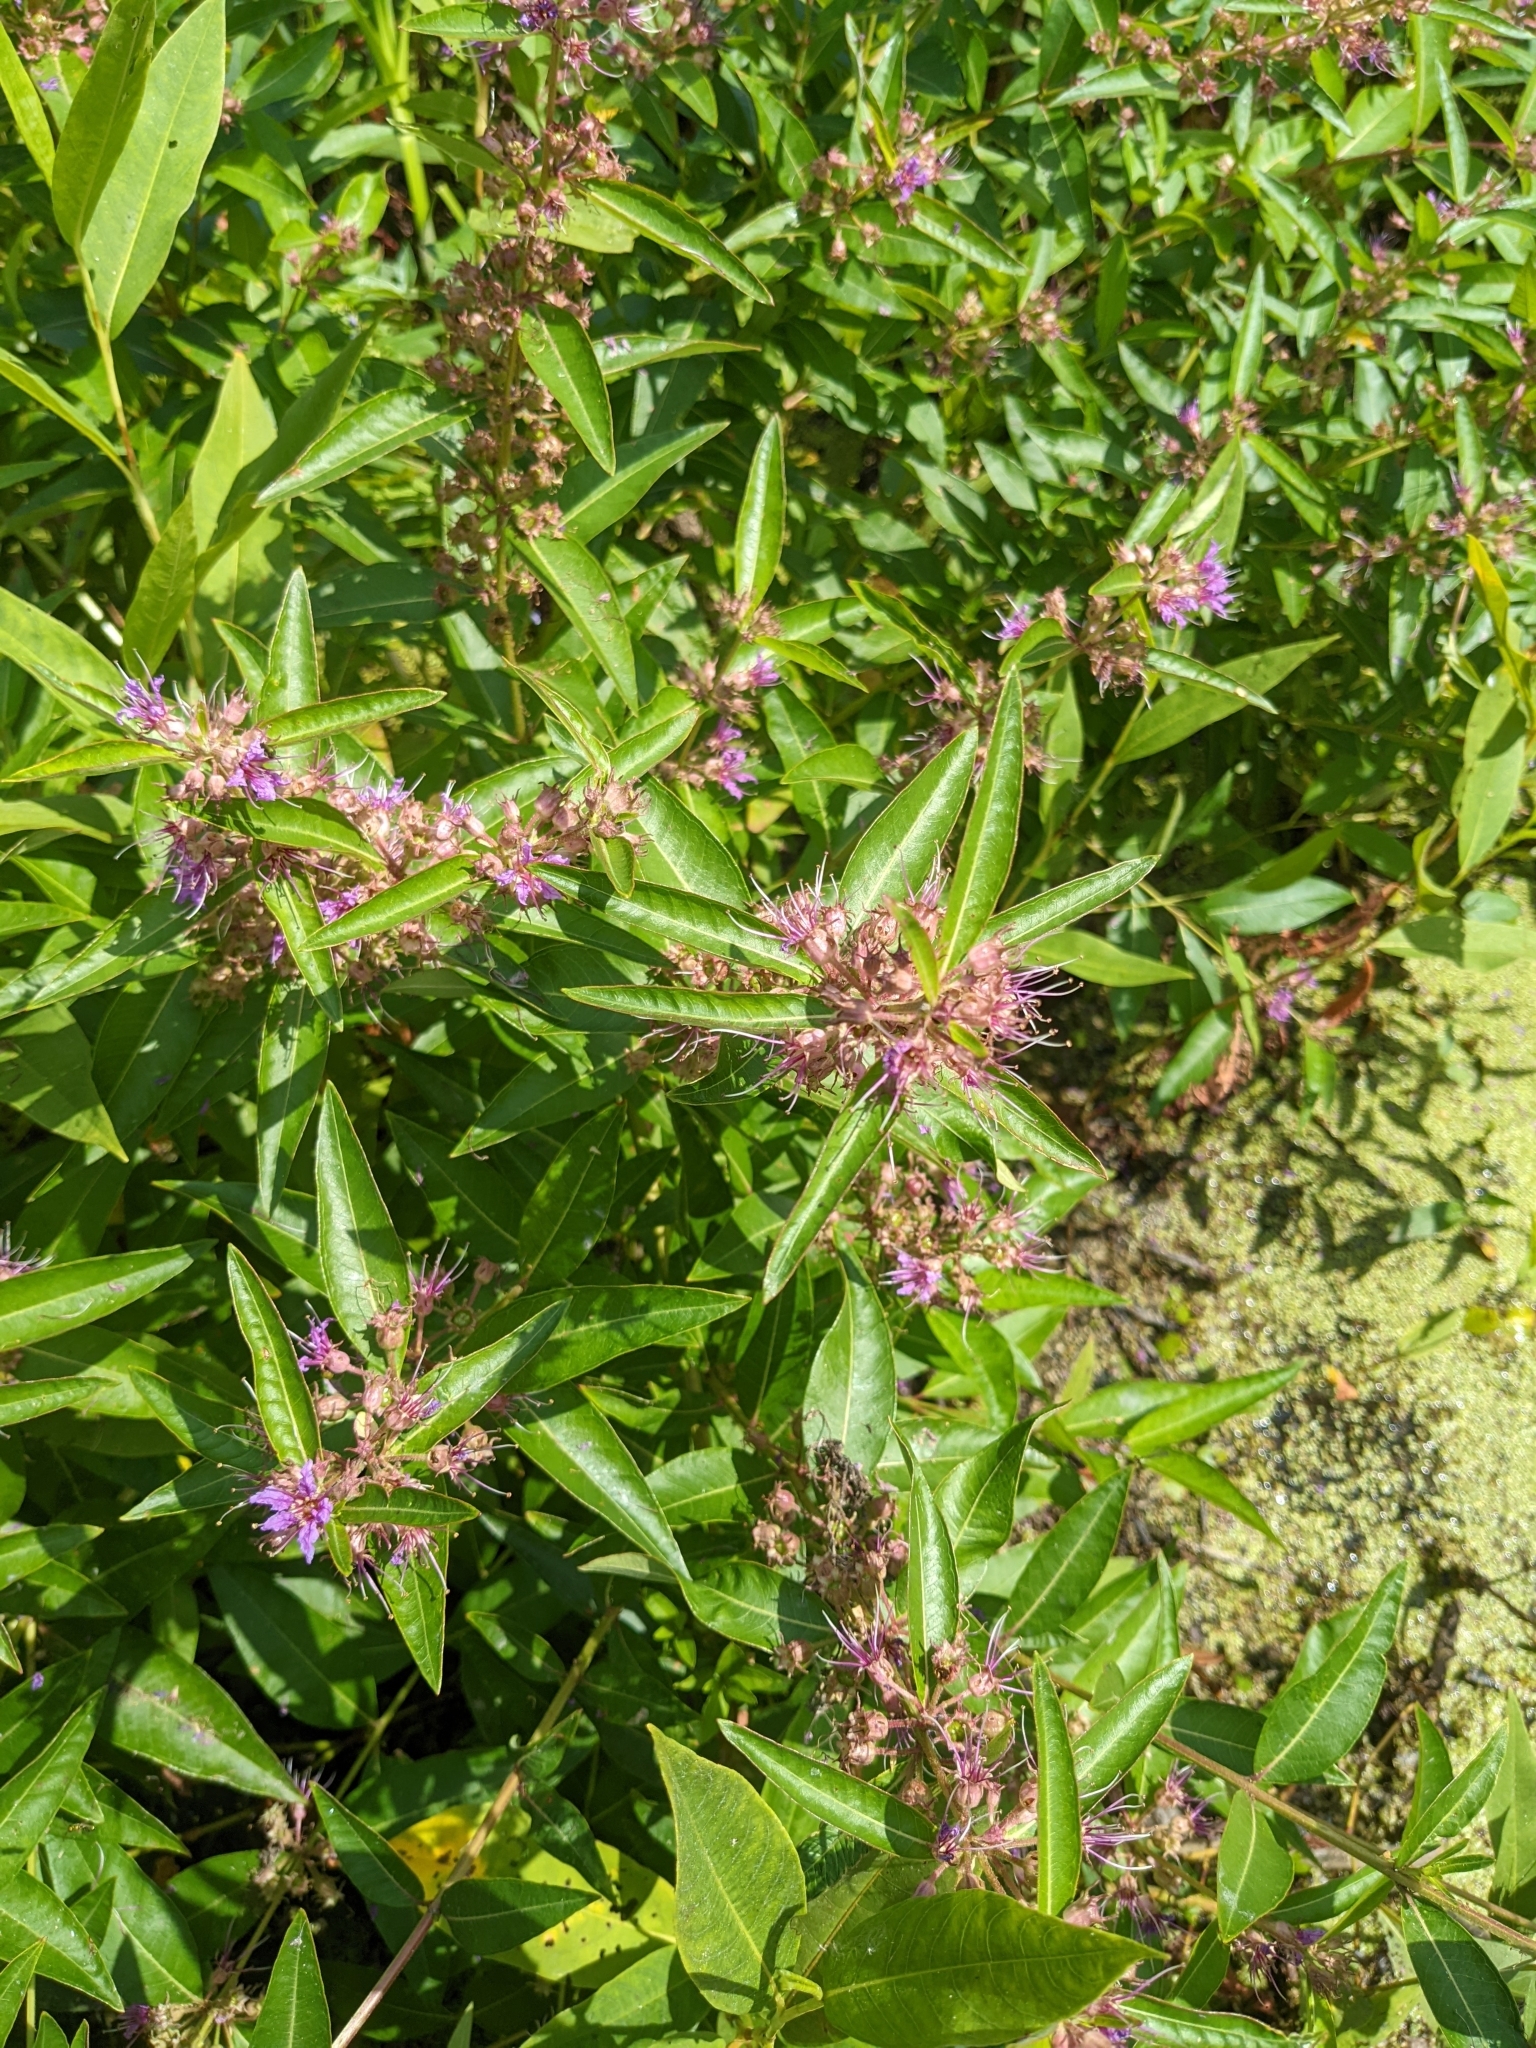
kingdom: Plantae
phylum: Tracheophyta
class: Magnoliopsida
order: Myrtales
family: Lythraceae
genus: Decodon
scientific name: Decodon verticillatus
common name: Hairy swamp loosestrife
